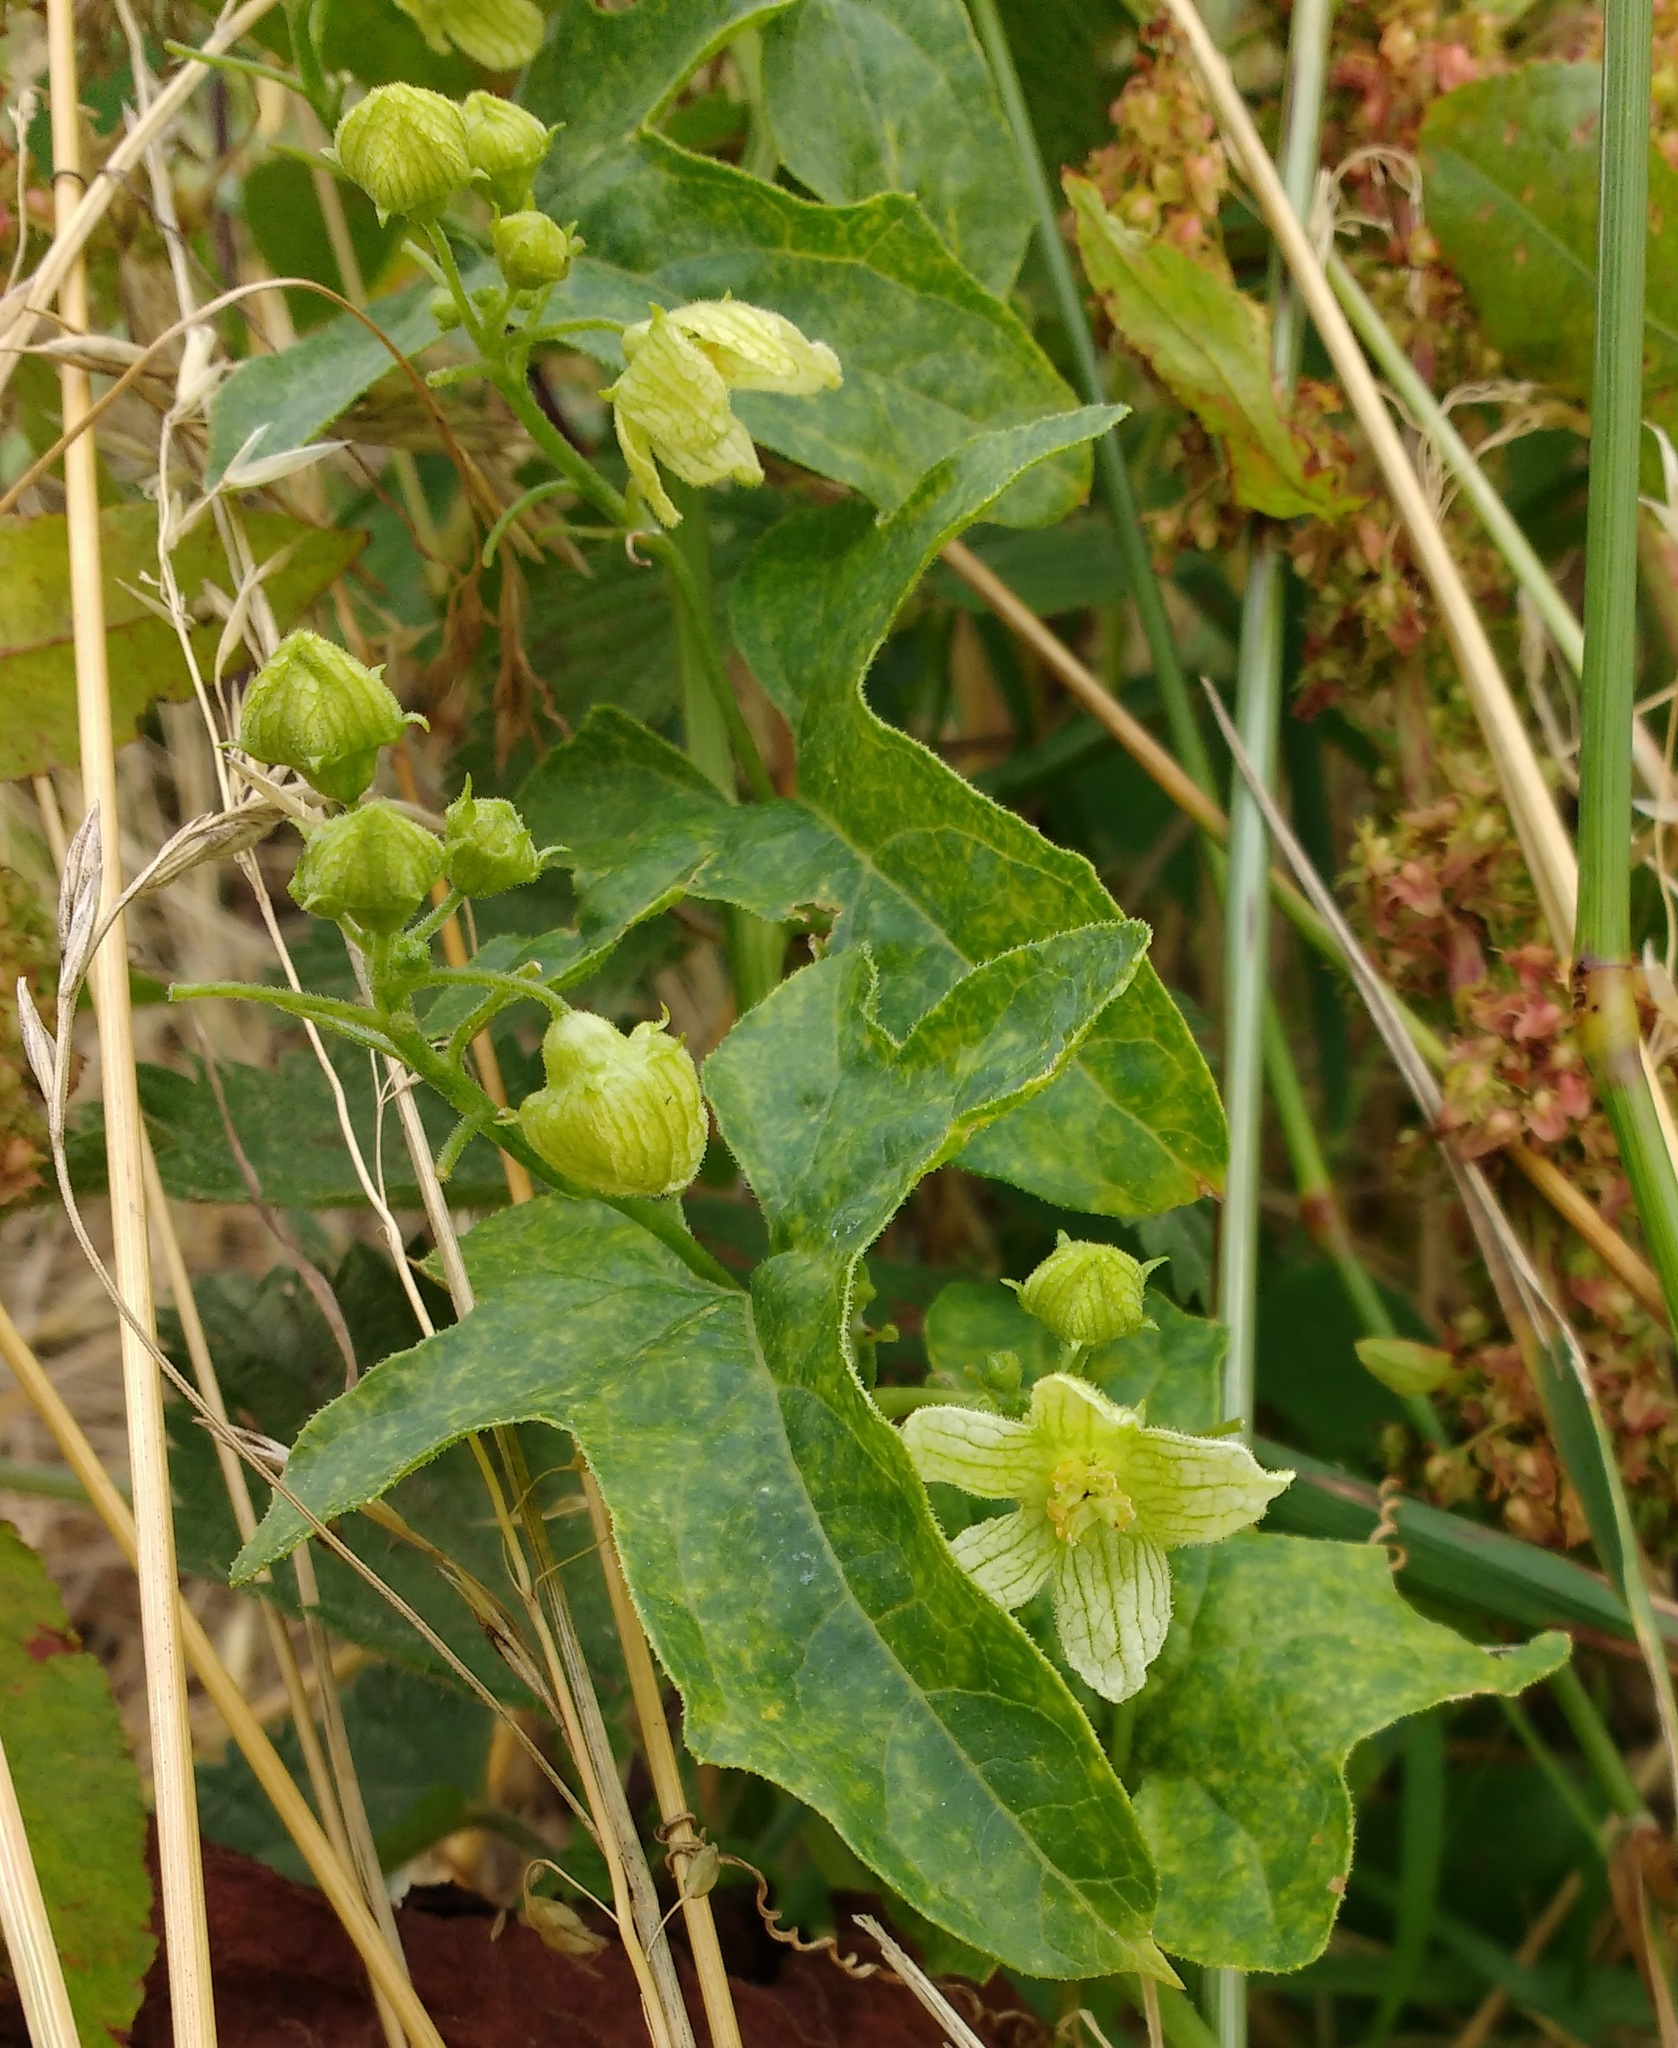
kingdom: Plantae
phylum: Tracheophyta
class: Magnoliopsida
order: Cucurbitales
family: Cucurbitaceae
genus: Bryonia
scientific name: Bryonia cretica
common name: Cretan bryony
